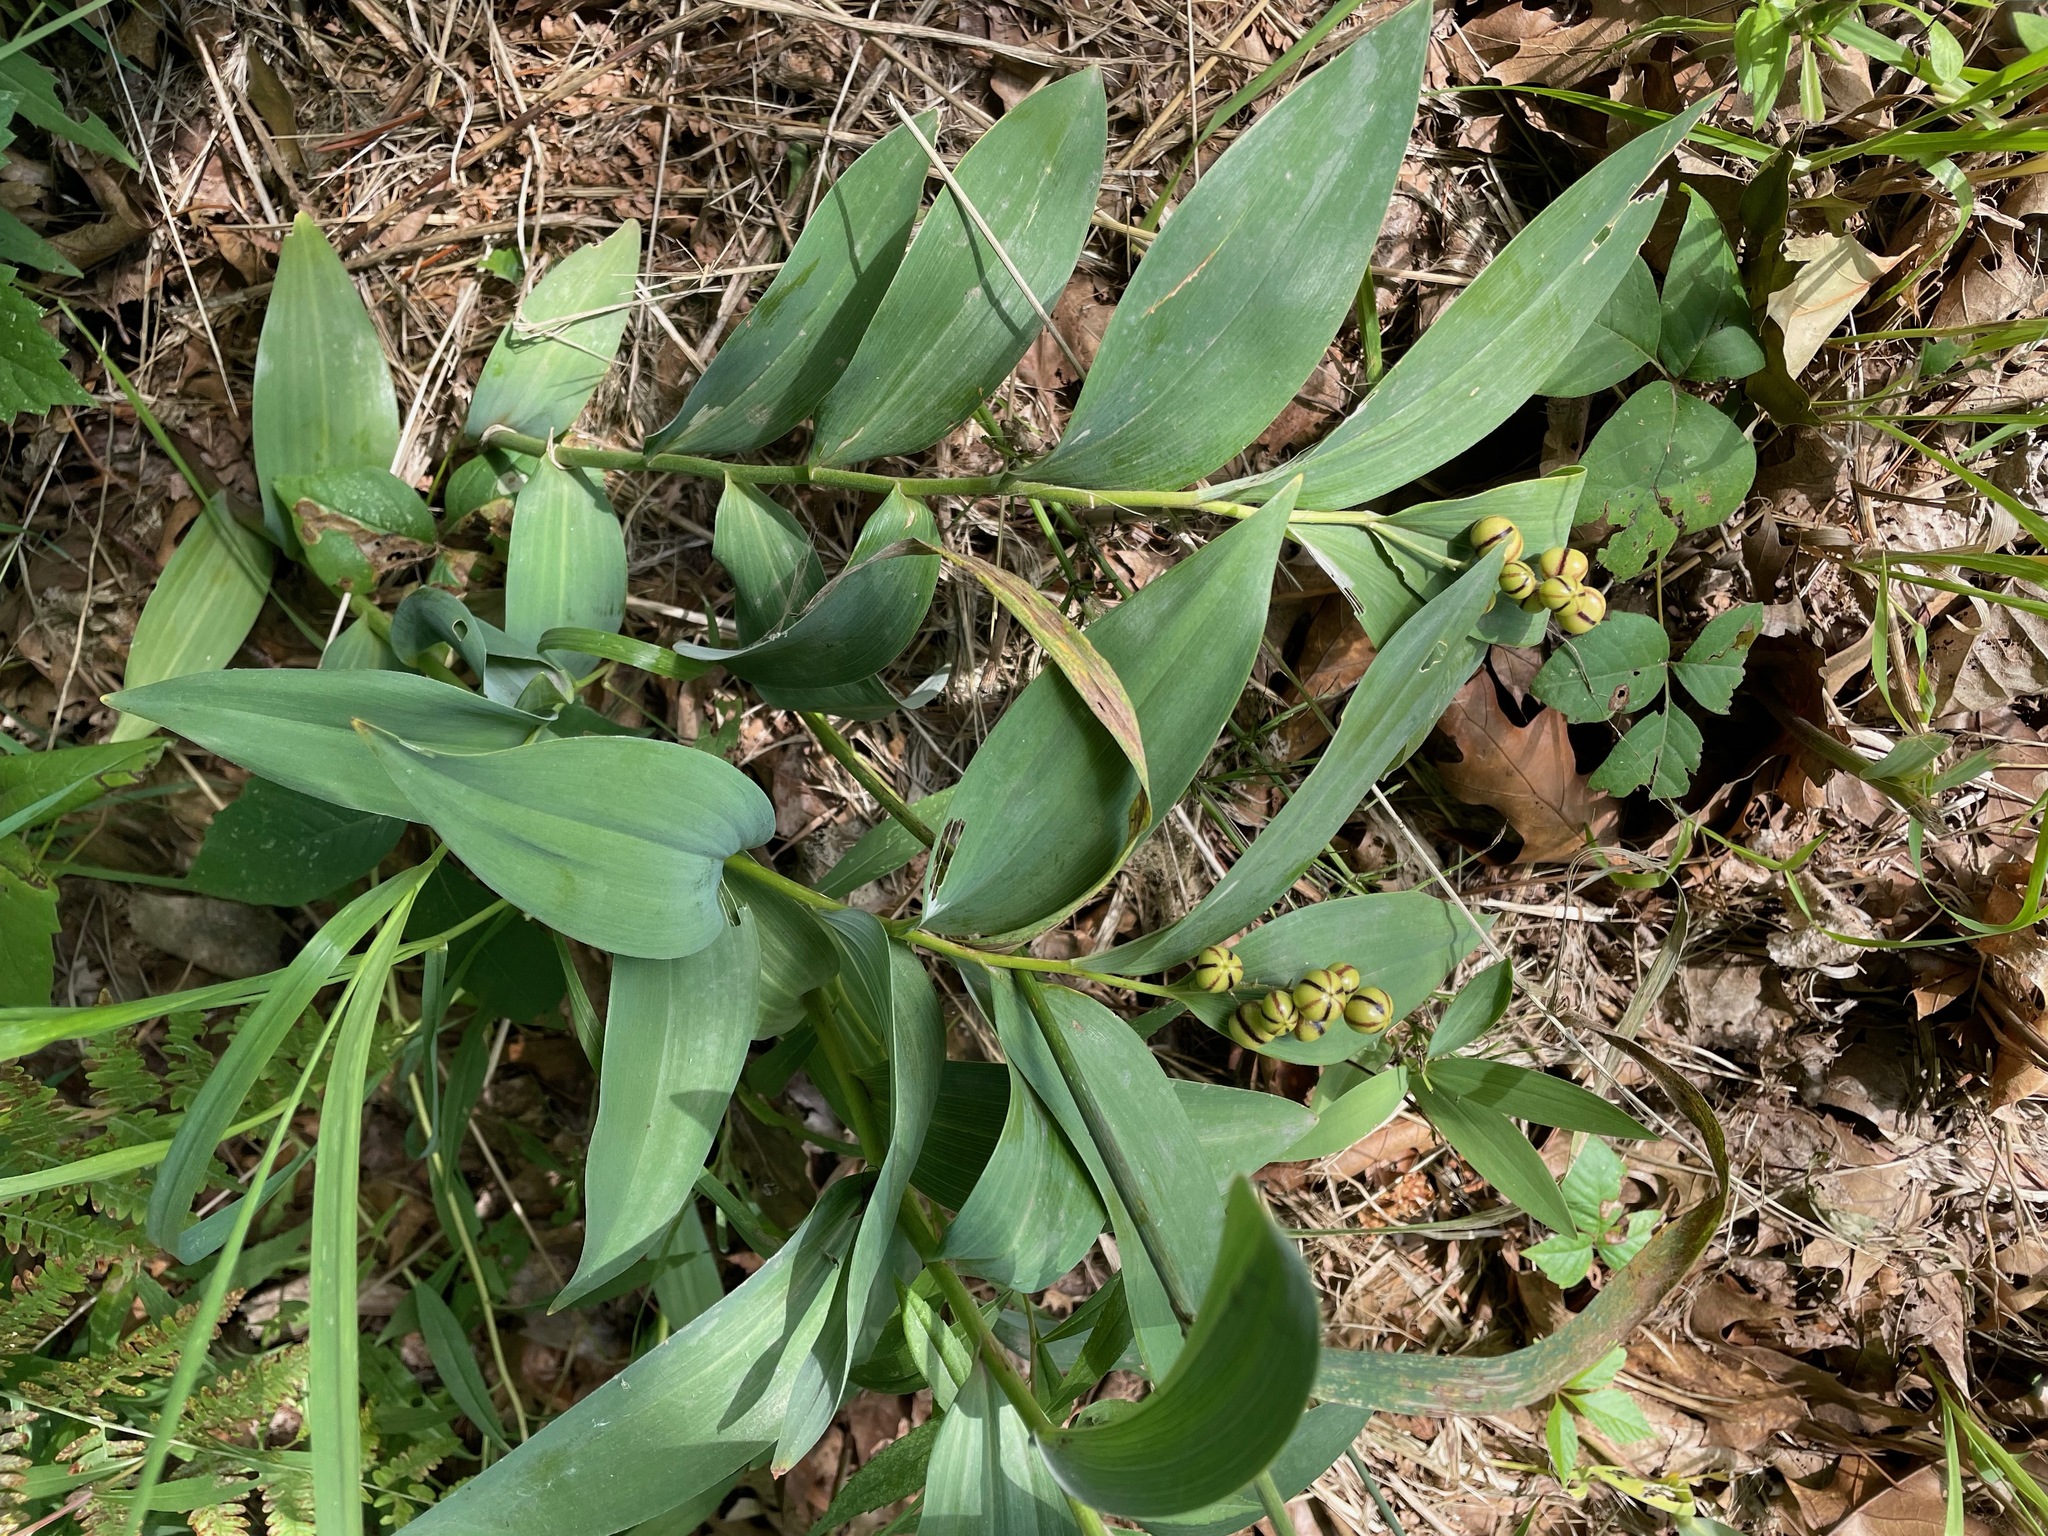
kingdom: Plantae
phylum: Tracheophyta
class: Liliopsida
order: Asparagales
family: Asparagaceae
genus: Maianthemum
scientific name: Maianthemum stellatum
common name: Little false solomon's seal
